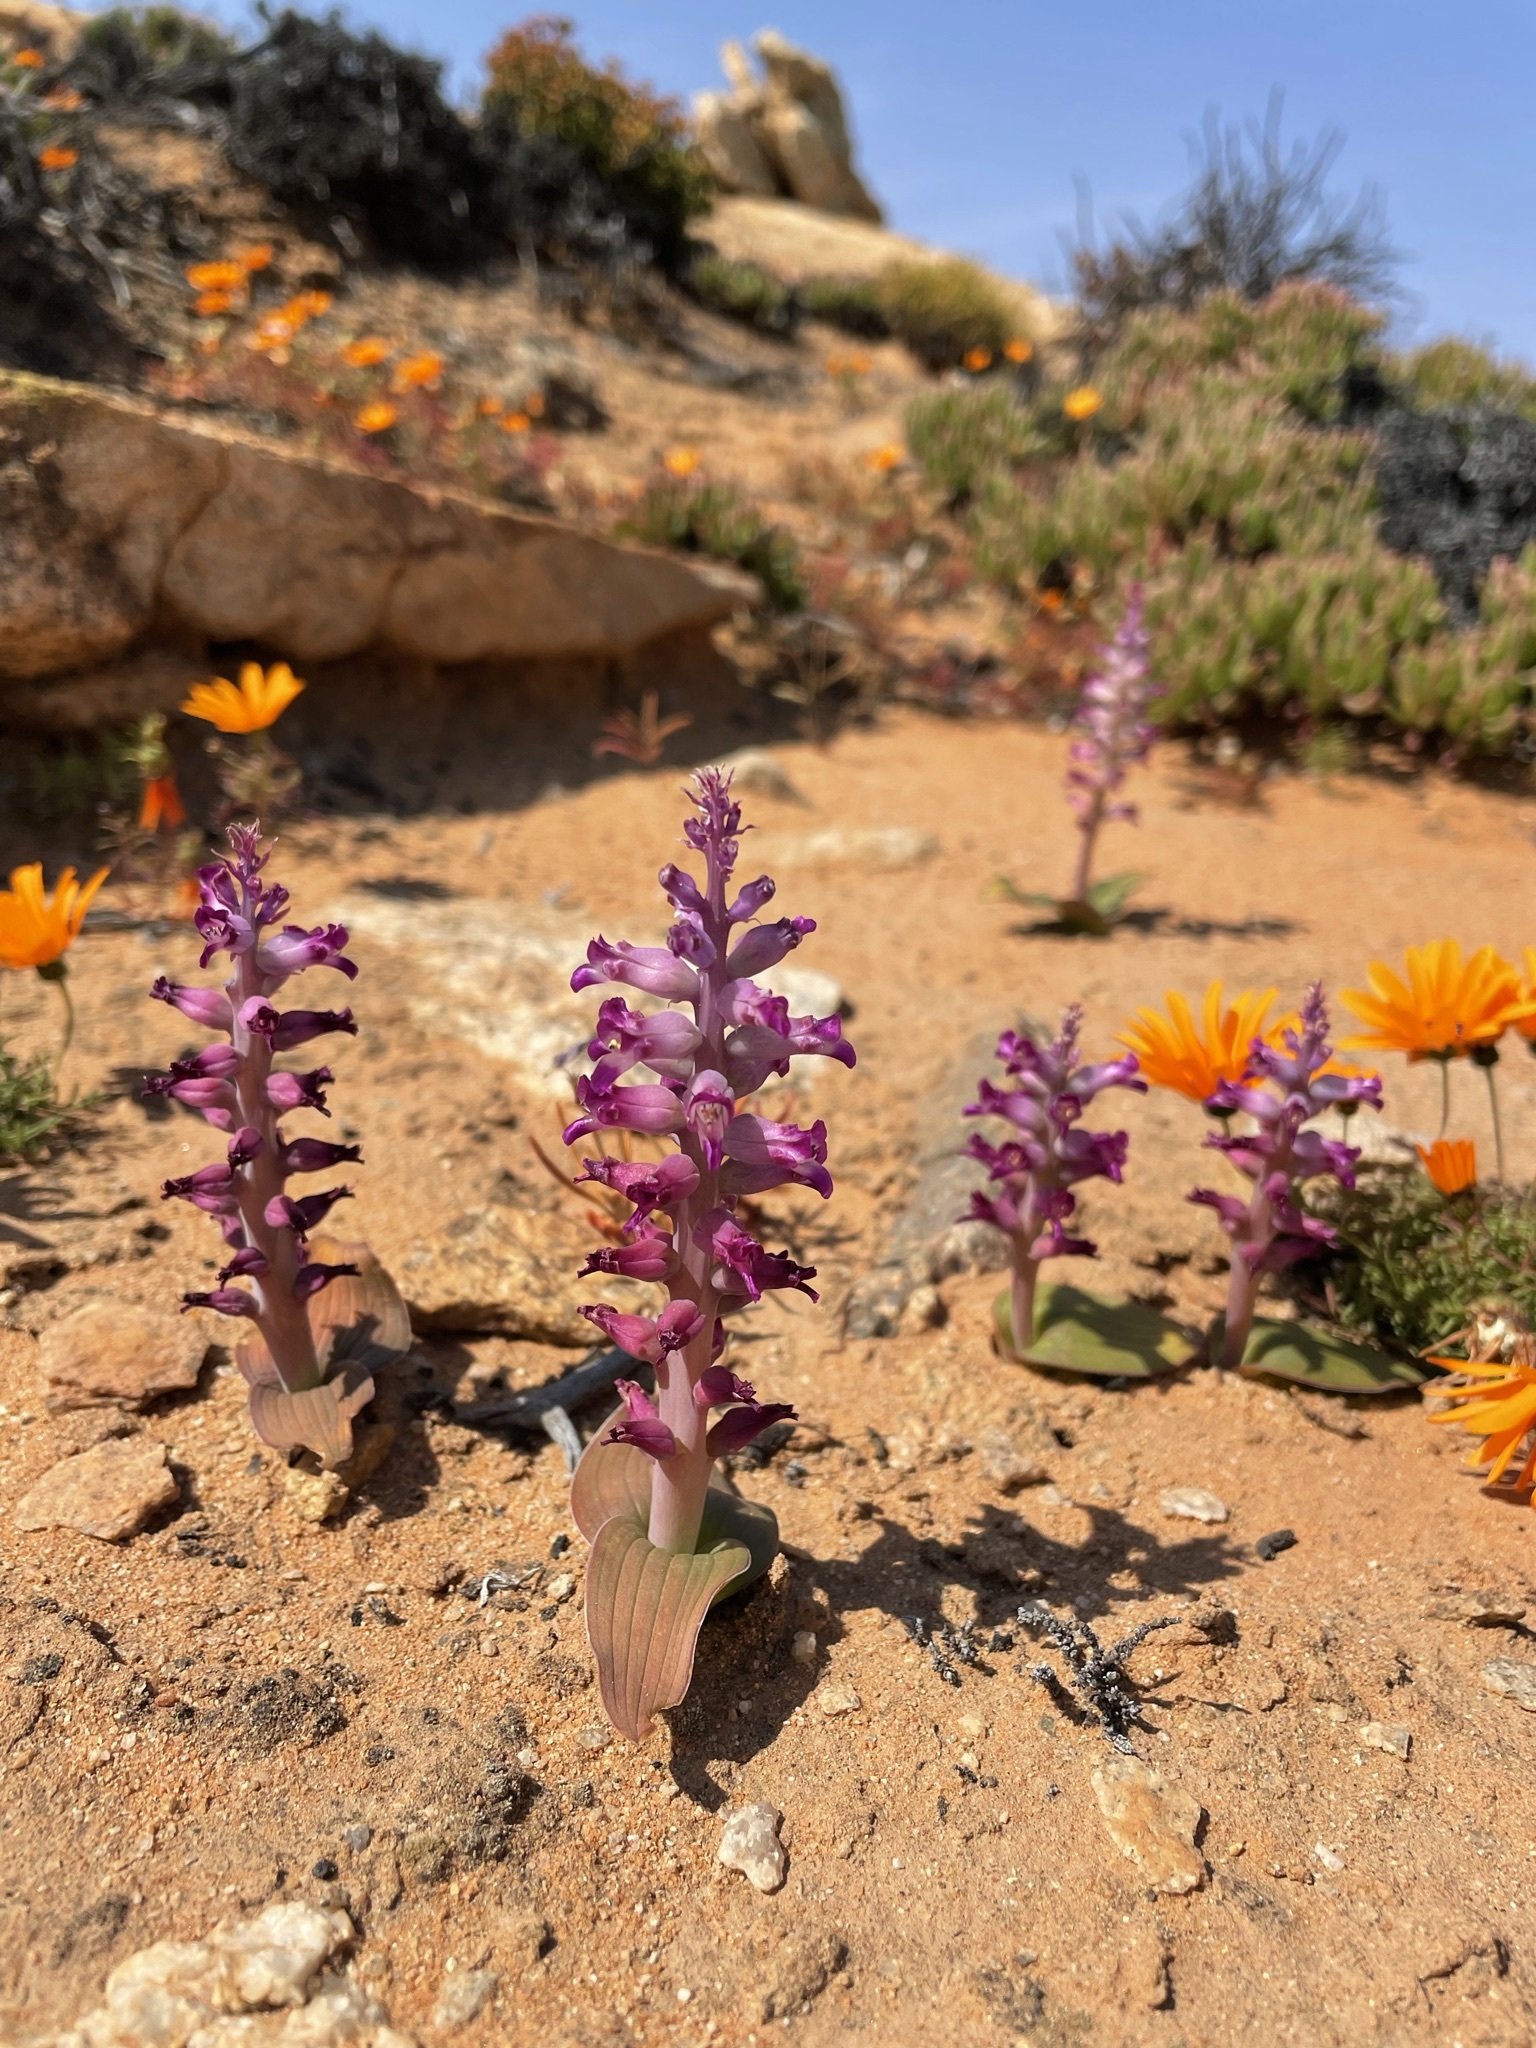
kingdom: Plantae
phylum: Tracheophyta
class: Liliopsida
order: Asparagales
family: Asparagaceae
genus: Lachenalia
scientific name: Lachenalia carnosa
